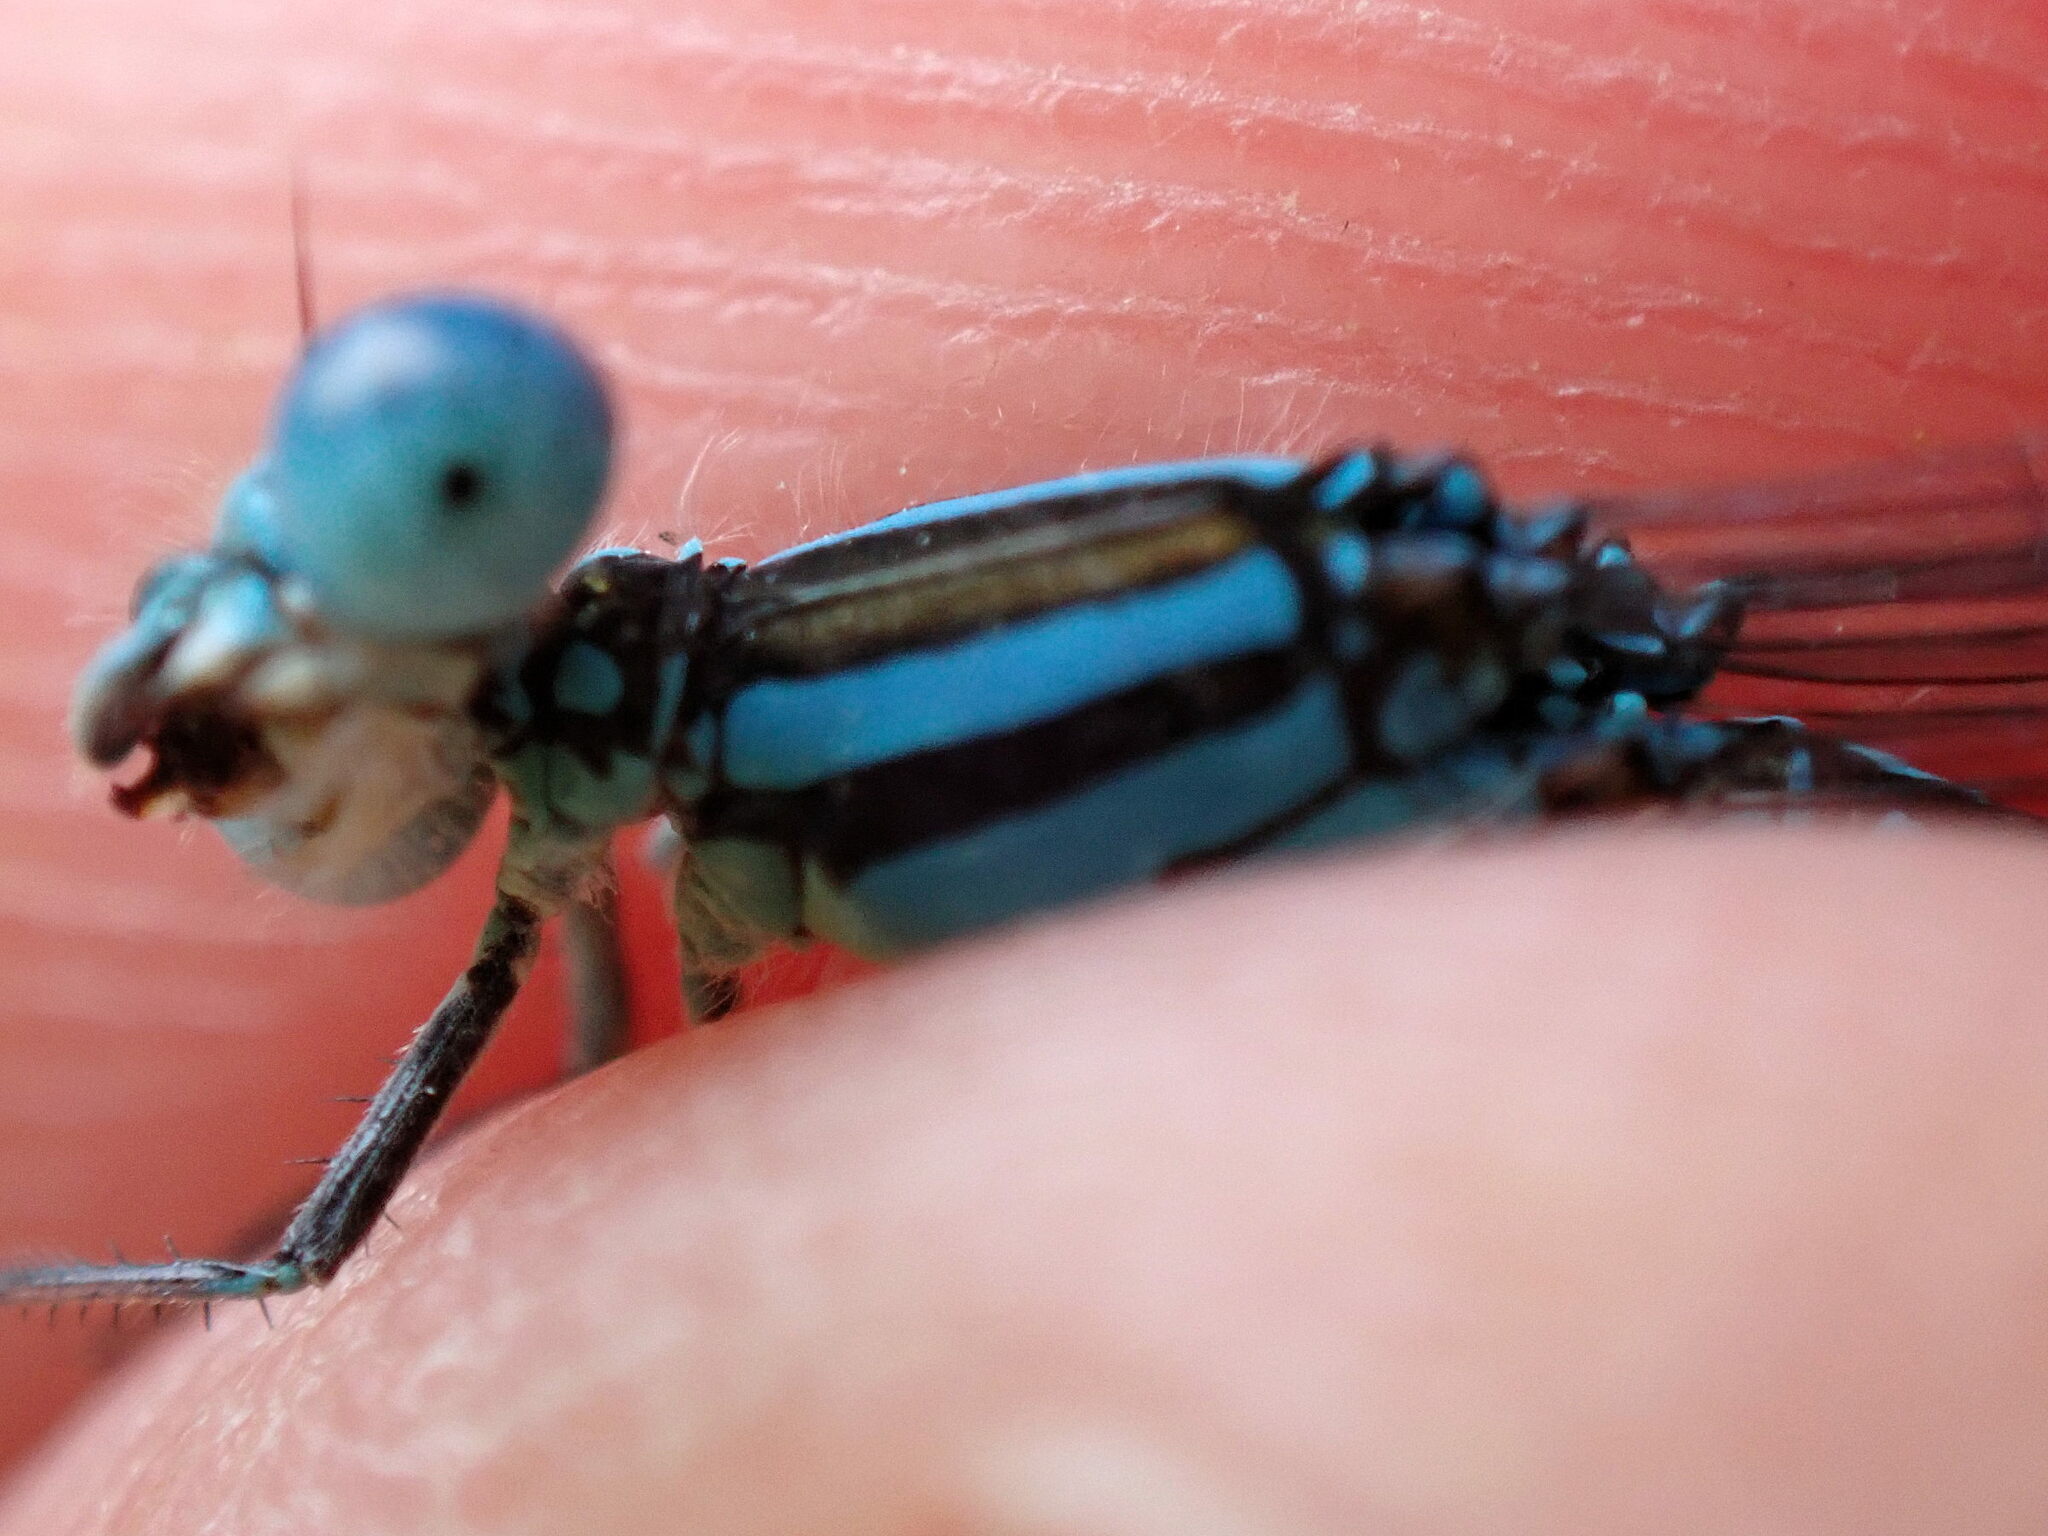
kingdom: Animalia
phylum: Arthropoda
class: Insecta
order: Odonata
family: Coenagrionidae
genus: Erythromma
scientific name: Erythromma lindenii
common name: Blue-eye
